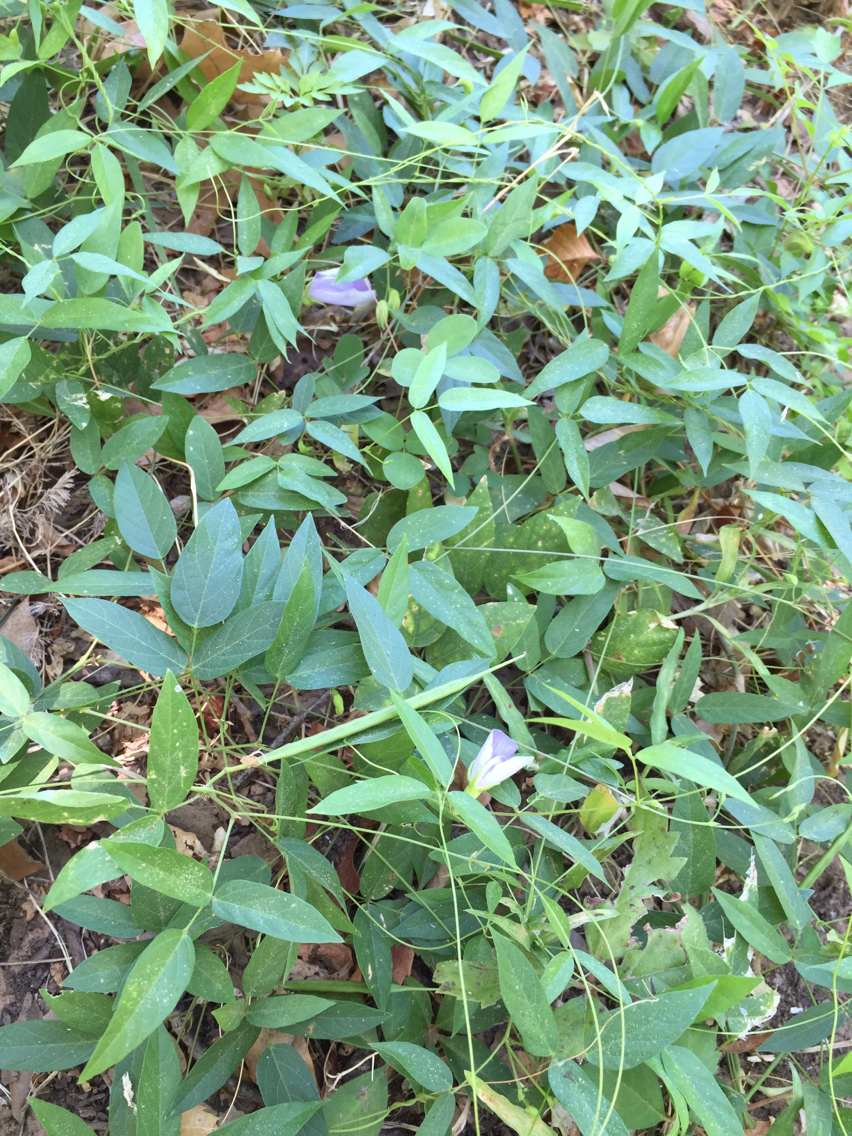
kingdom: Plantae
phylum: Tracheophyta
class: Magnoliopsida
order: Fabales
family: Fabaceae
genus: Centrosema
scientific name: Centrosema virginianum
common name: Butterfly-pea
